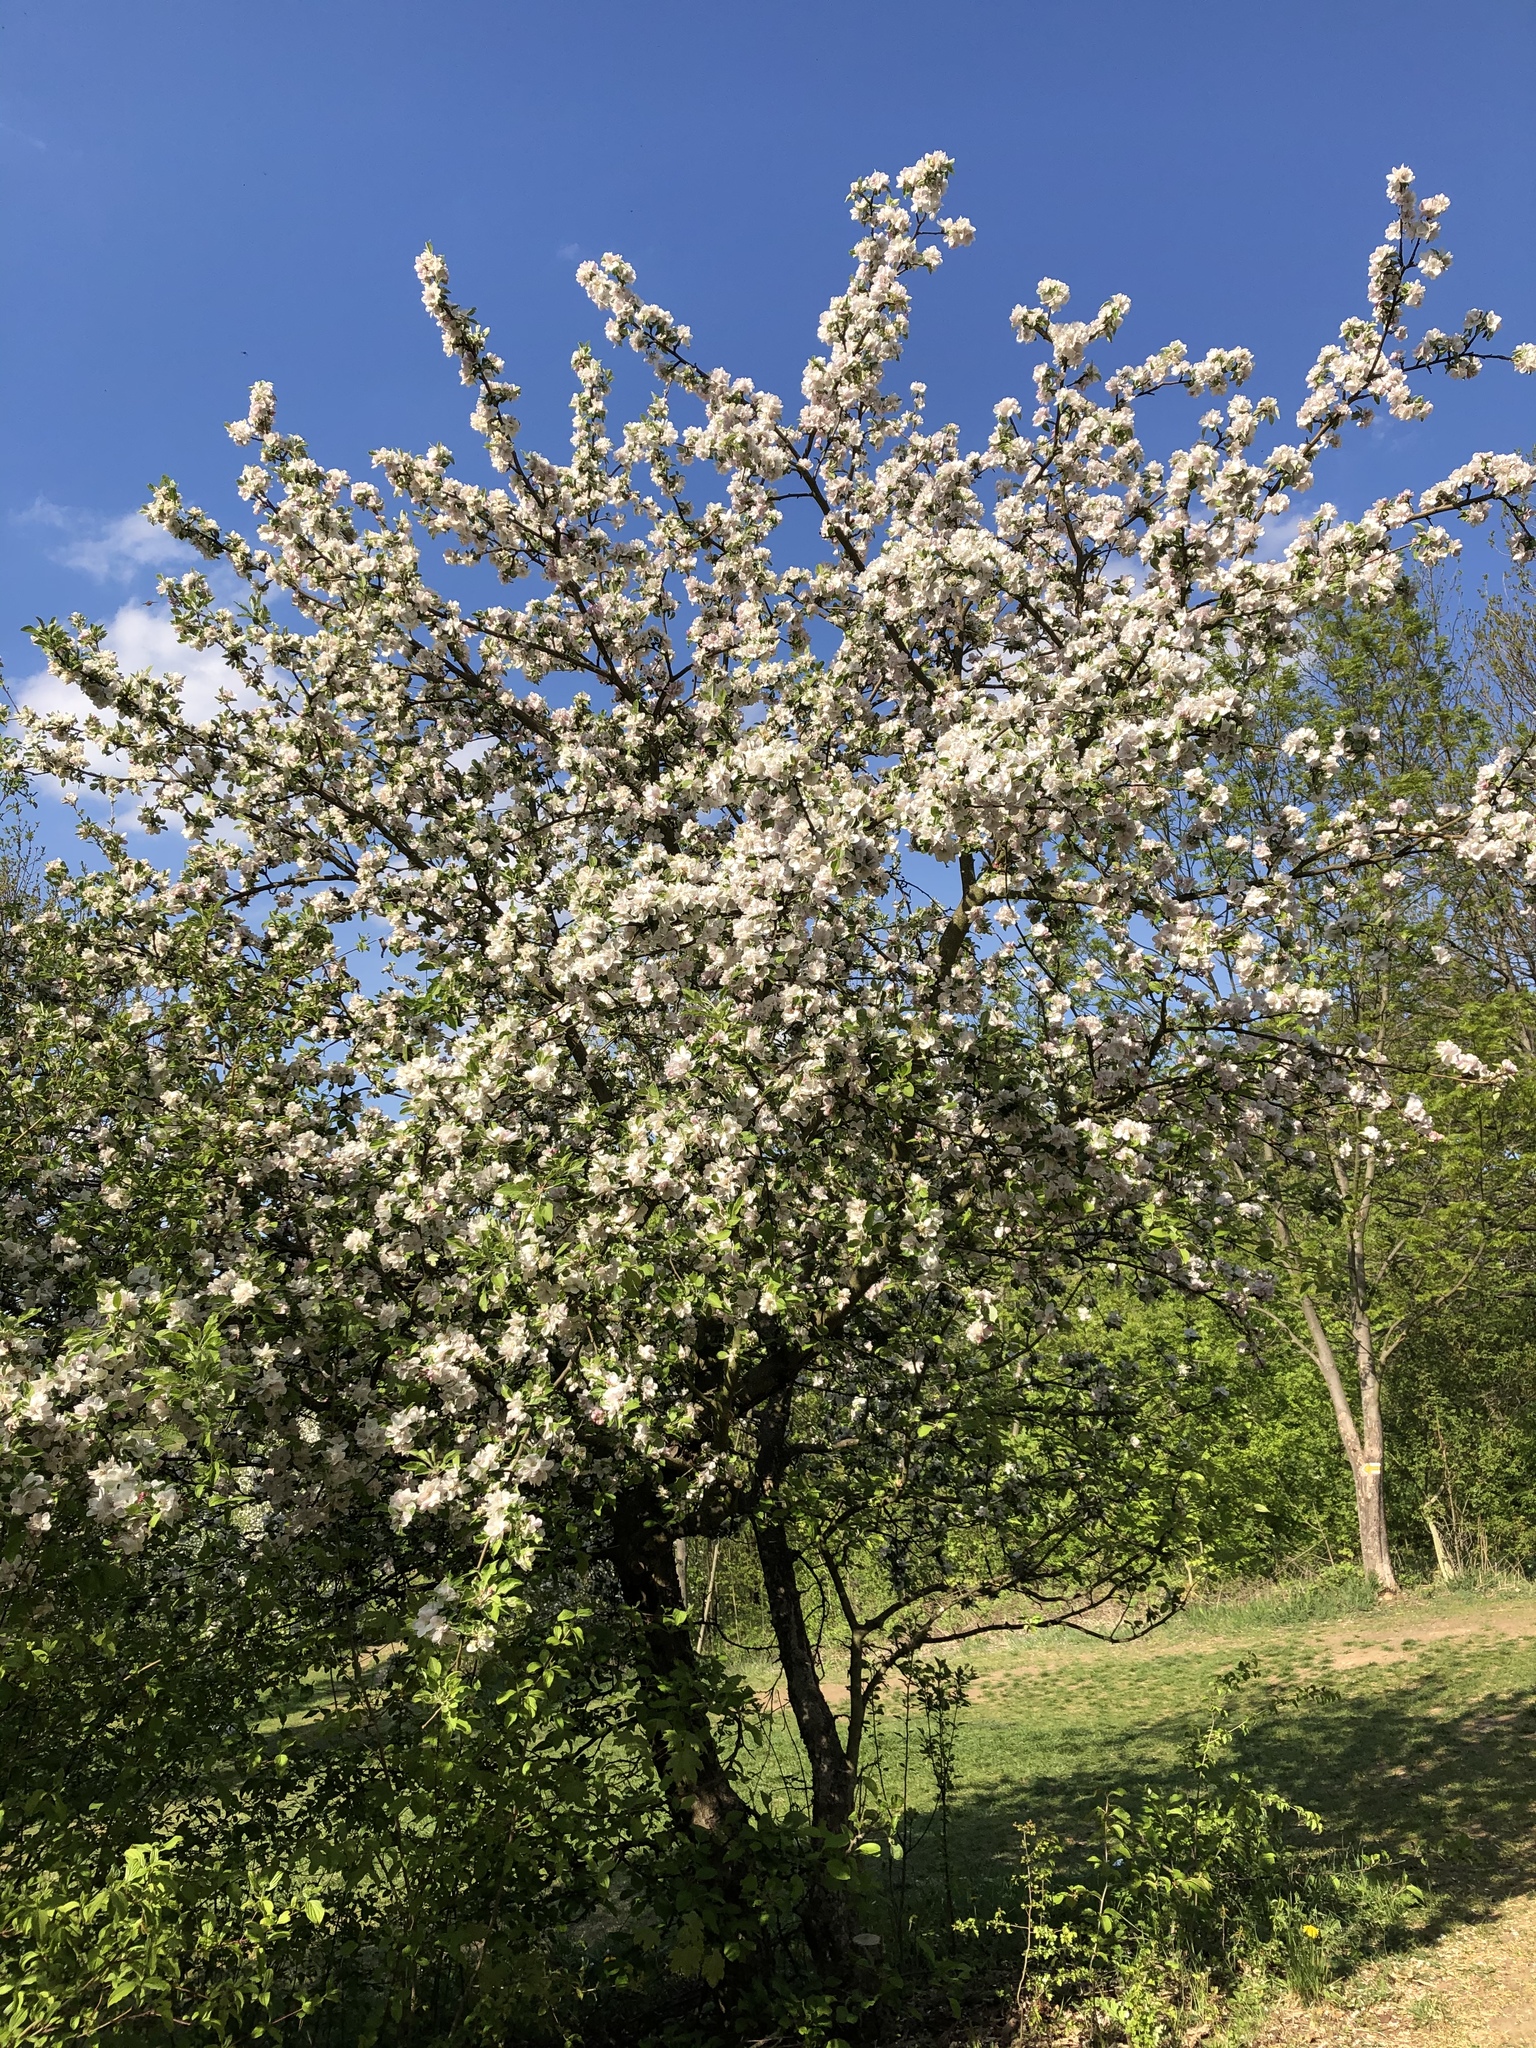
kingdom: Plantae
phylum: Tracheophyta
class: Magnoliopsida
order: Rosales
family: Rosaceae
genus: Malus
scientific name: Malus domestica
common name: Apple
